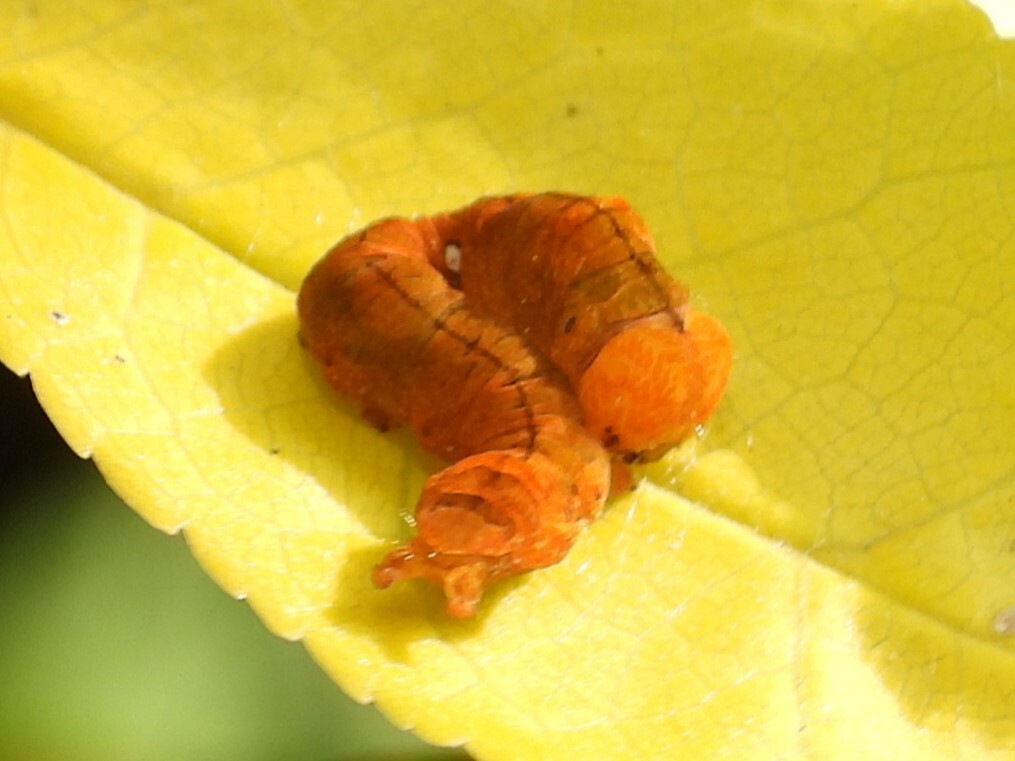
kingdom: Animalia
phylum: Arthropoda
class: Insecta
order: Lepidoptera
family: Drepanidae
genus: Pseudothyatira
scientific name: Pseudothyatira cymatophoroides
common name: Tufted thyatirid moth
